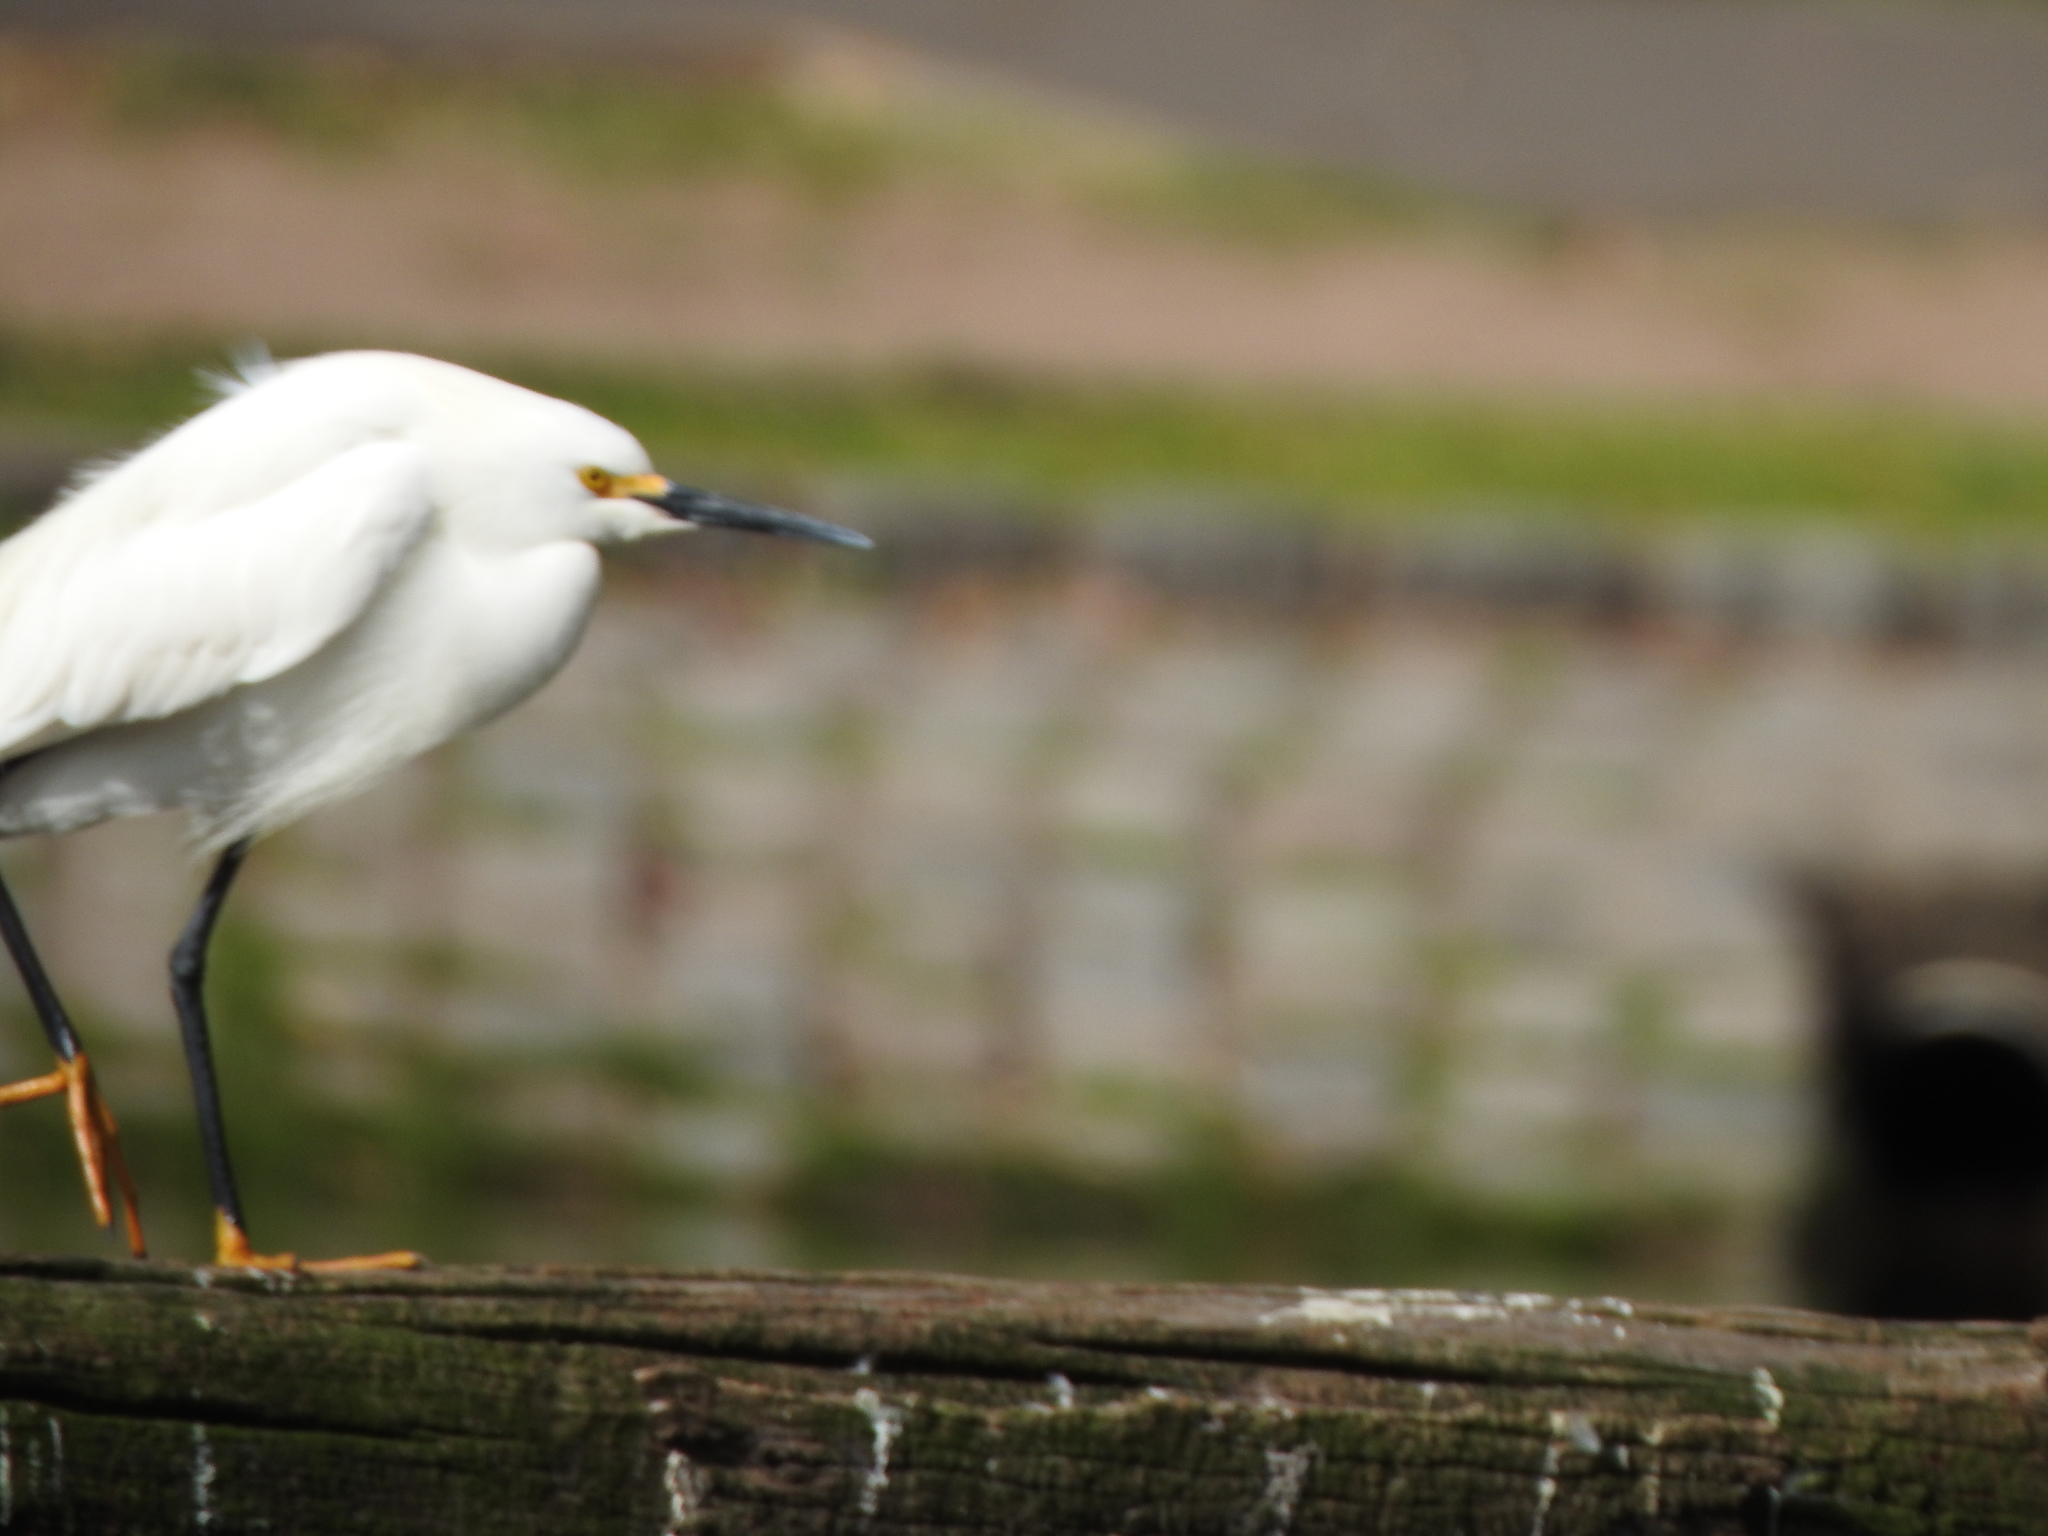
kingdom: Animalia
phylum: Chordata
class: Aves
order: Pelecaniformes
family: Ardeidae
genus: Egretta
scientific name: Egretta thula
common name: Snowy egret
